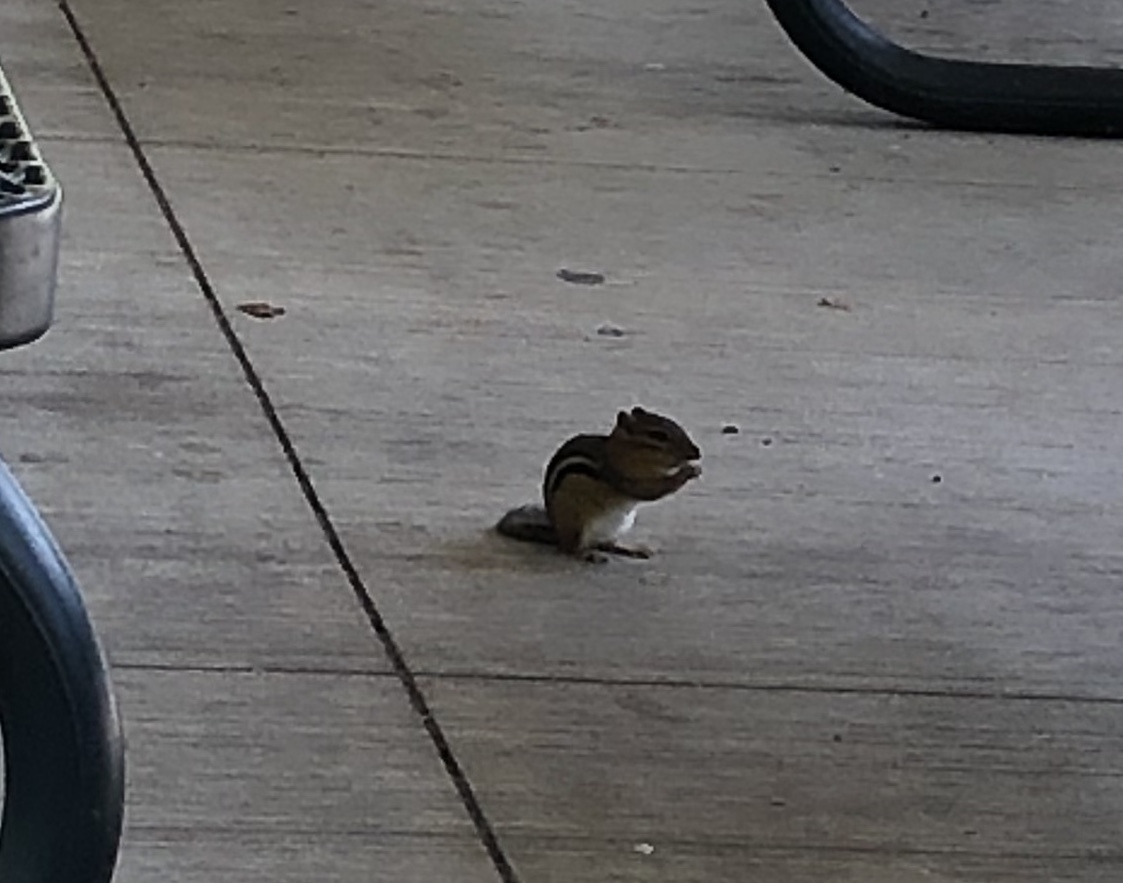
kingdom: Animalia
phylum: Chordata
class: Mammalia
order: Rodentia
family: Sciuridae
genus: Tamias
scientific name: Tamias striatus
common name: Eastern chipmunk
